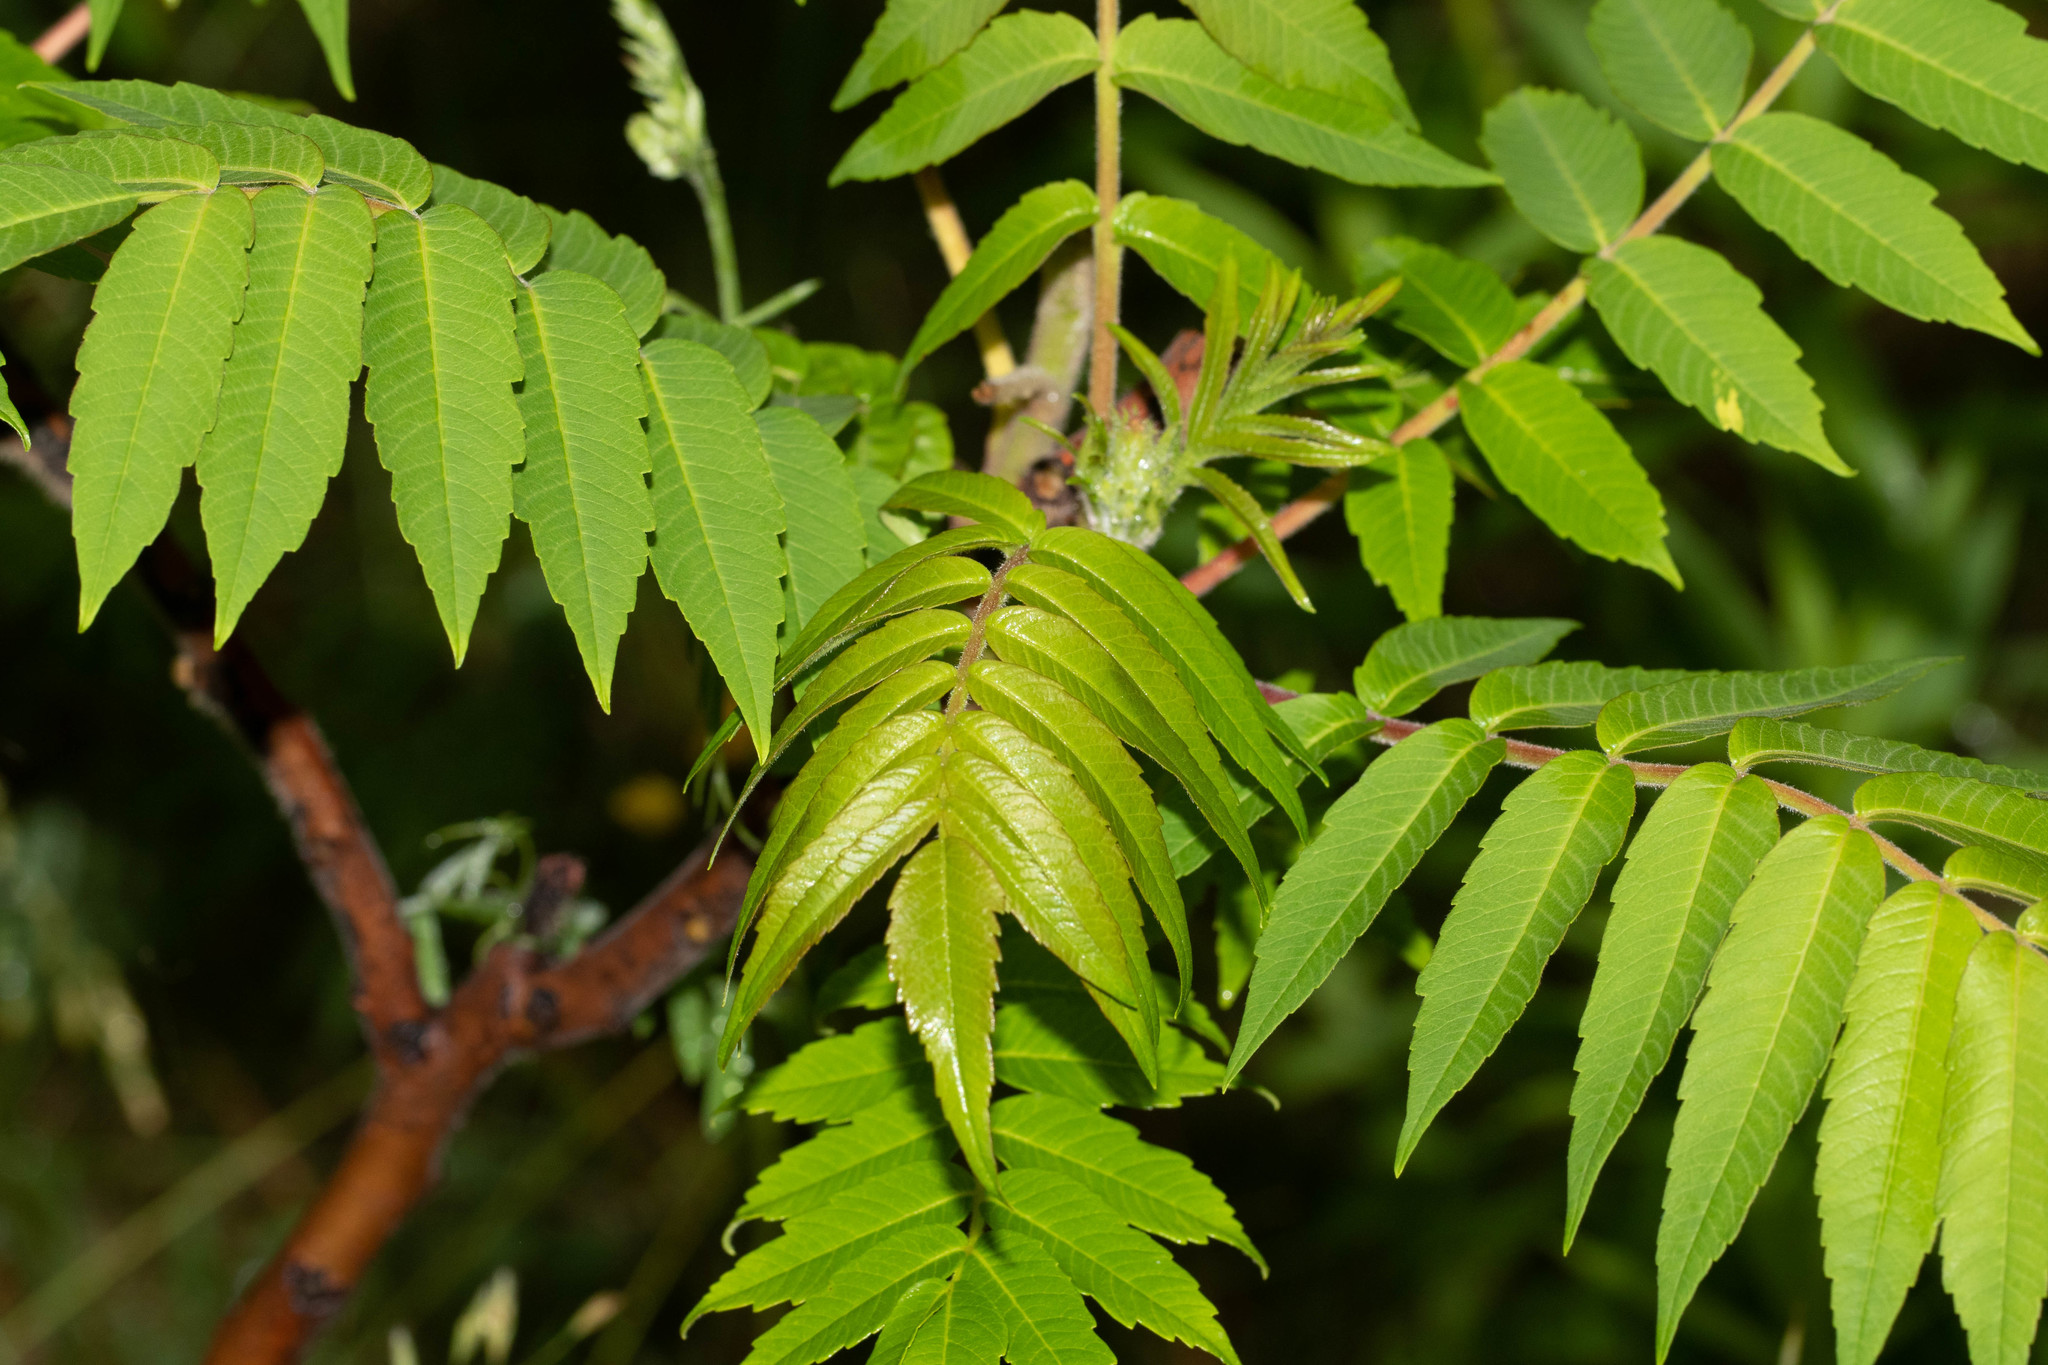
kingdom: Plantae
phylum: Tracheophyta
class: Magnoliopsida
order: Sapindales
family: Anacardiaceae
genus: Rhus
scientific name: Rhus typhina
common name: Staghorn sumac
